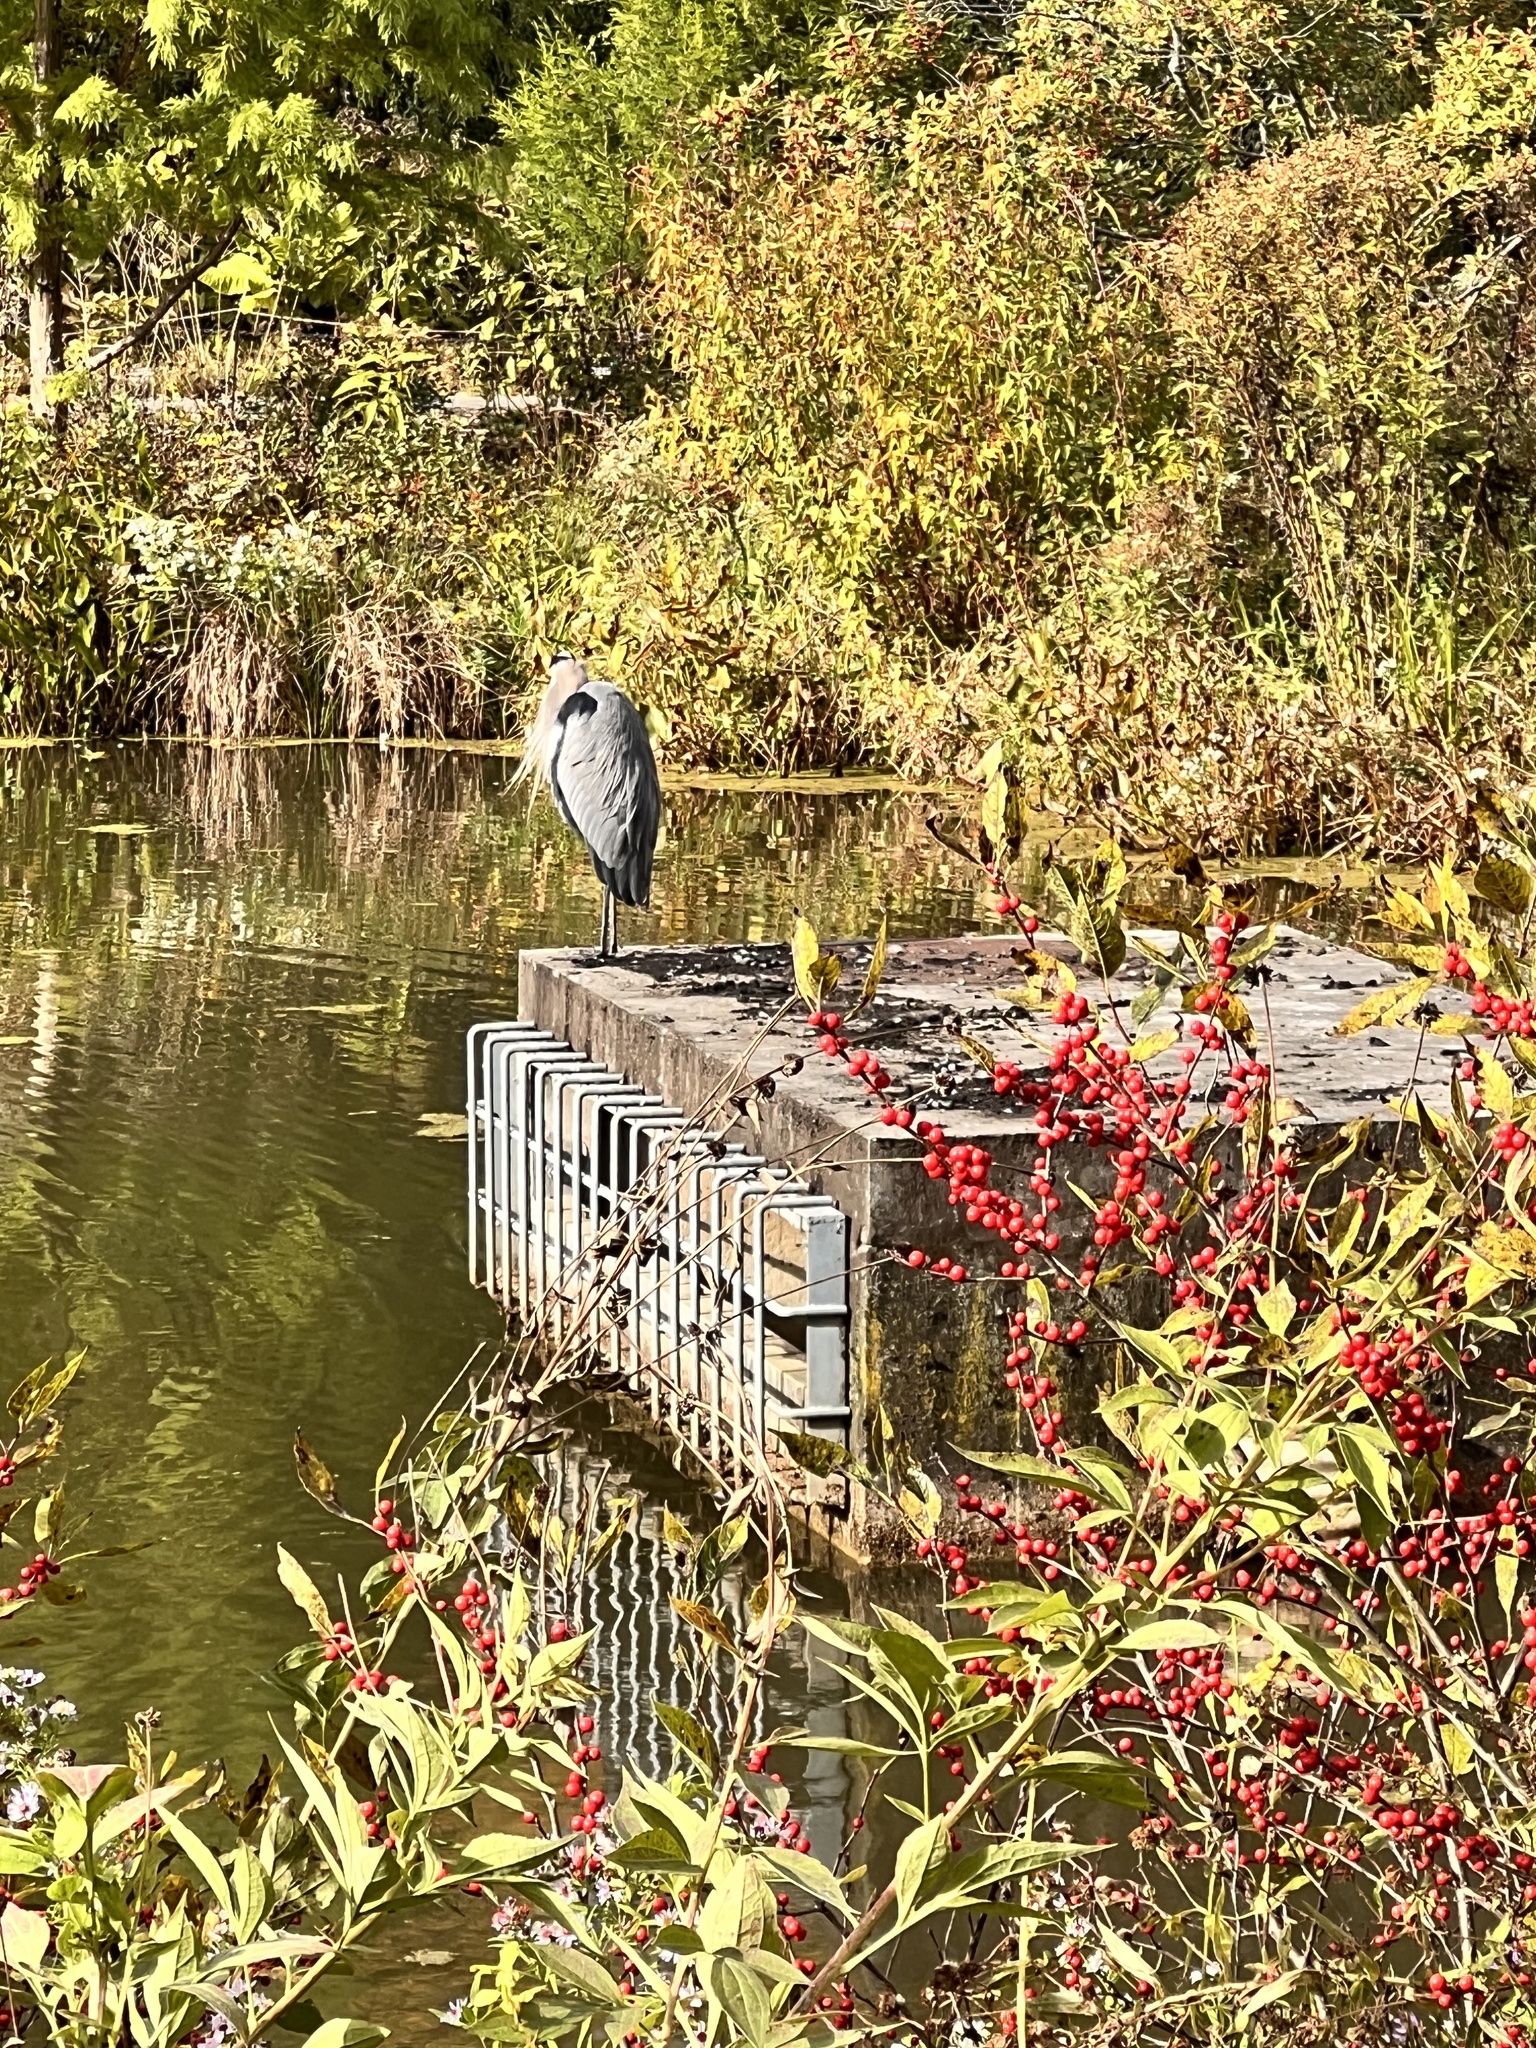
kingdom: Animalia
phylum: Chordata
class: Aves
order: Pelecaniformes
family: Ardeidae
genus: Ardea
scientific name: Ardea herodias
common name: Great blue heron
